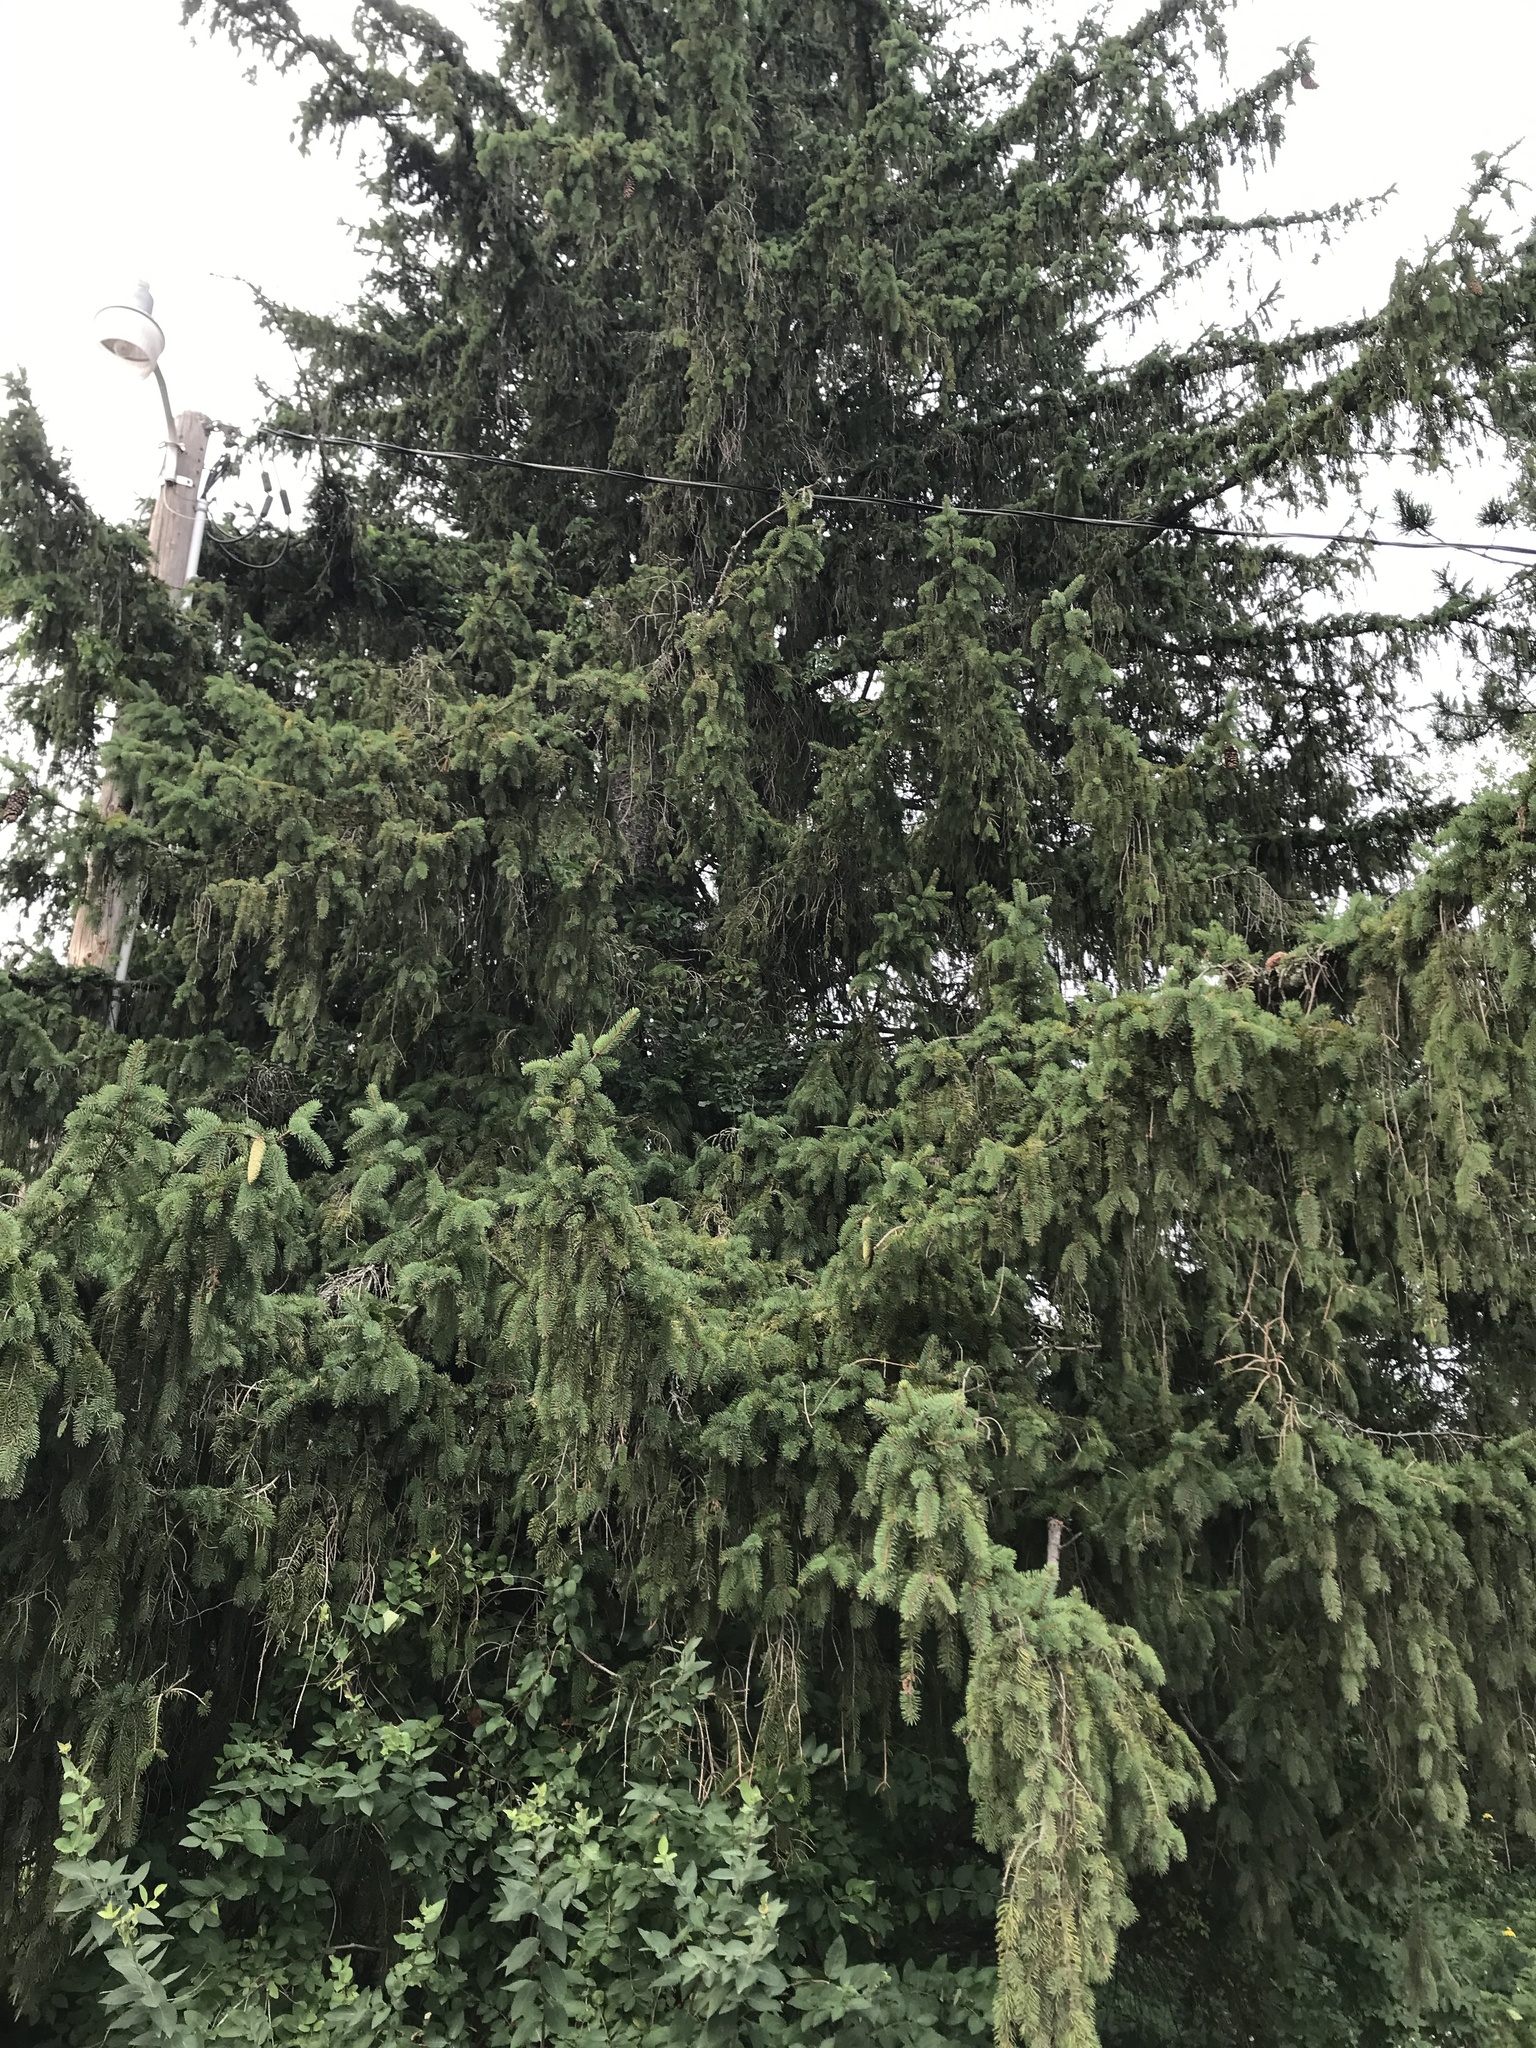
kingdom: Plantae
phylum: Tracheophyta
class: Pinopsida
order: Pinales
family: Pinaceae
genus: Picea
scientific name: Picea abies
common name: Norway spruce
